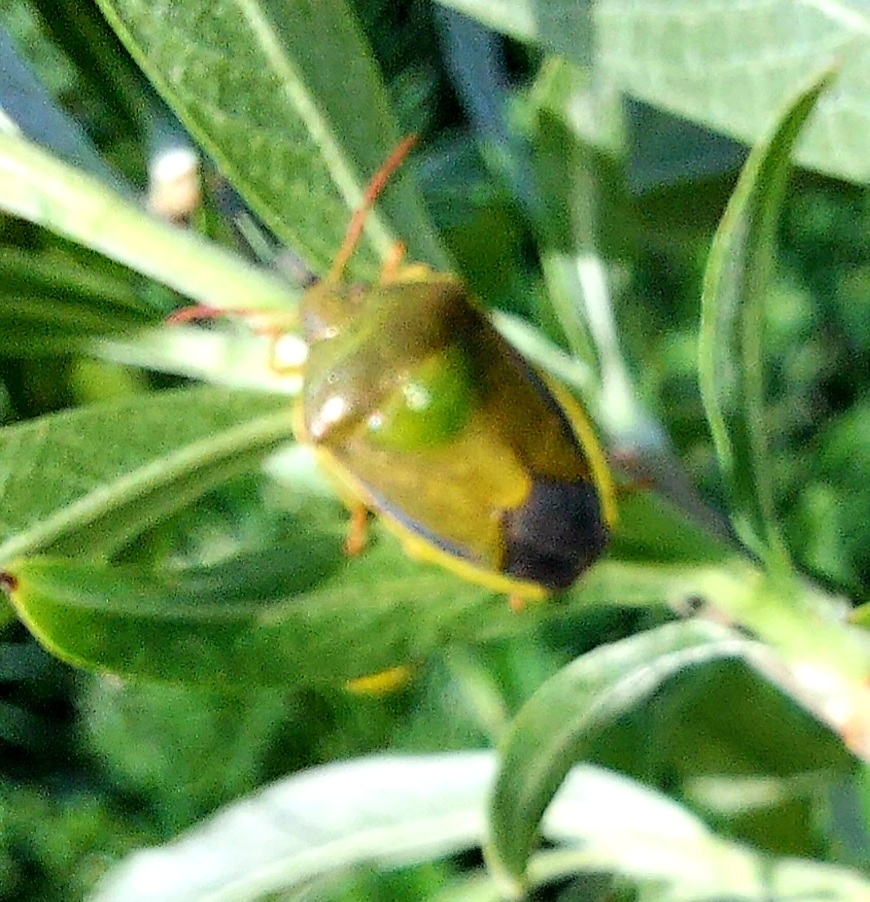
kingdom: Animalia
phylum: Arthropoda
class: Insecta
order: Hemiptera
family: Pentatomidae
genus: Palomena
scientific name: Palomena prasina
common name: Green shieldbug
